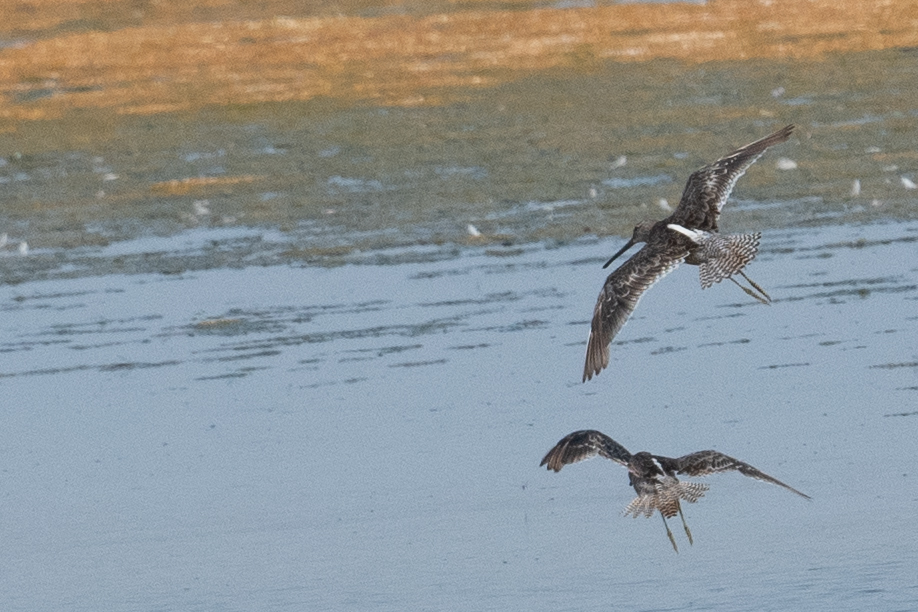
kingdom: Animalia
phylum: Chordata
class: Aves
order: Charadriiformes
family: Scolopacidae
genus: Limnodromus
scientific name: Limnodromus scolopaceus
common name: Long-billed dowitcher
